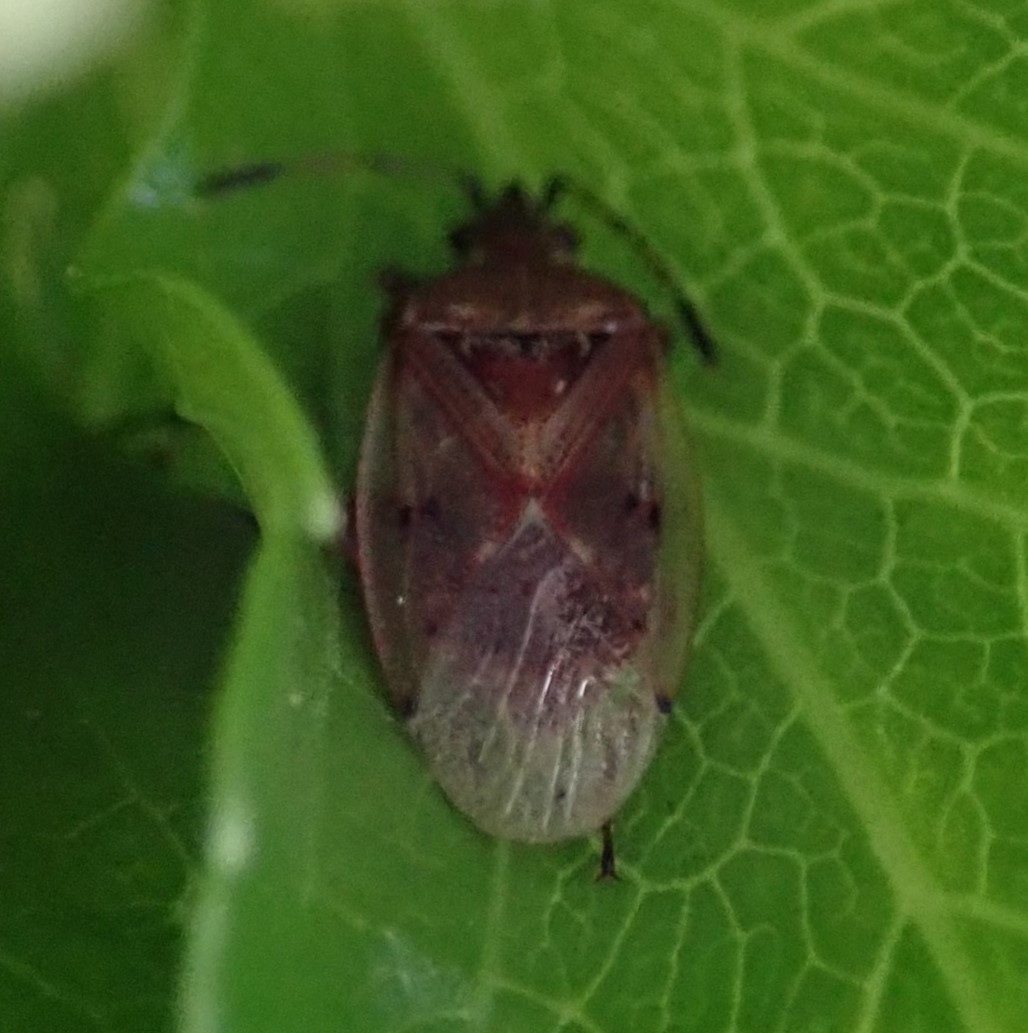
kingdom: Animalia
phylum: Arthropoda
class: Insecta
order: Hemiptera
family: Lygaeidae
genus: Kleidocerys
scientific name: Kleidocerys resedae
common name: Birch catkin bug
